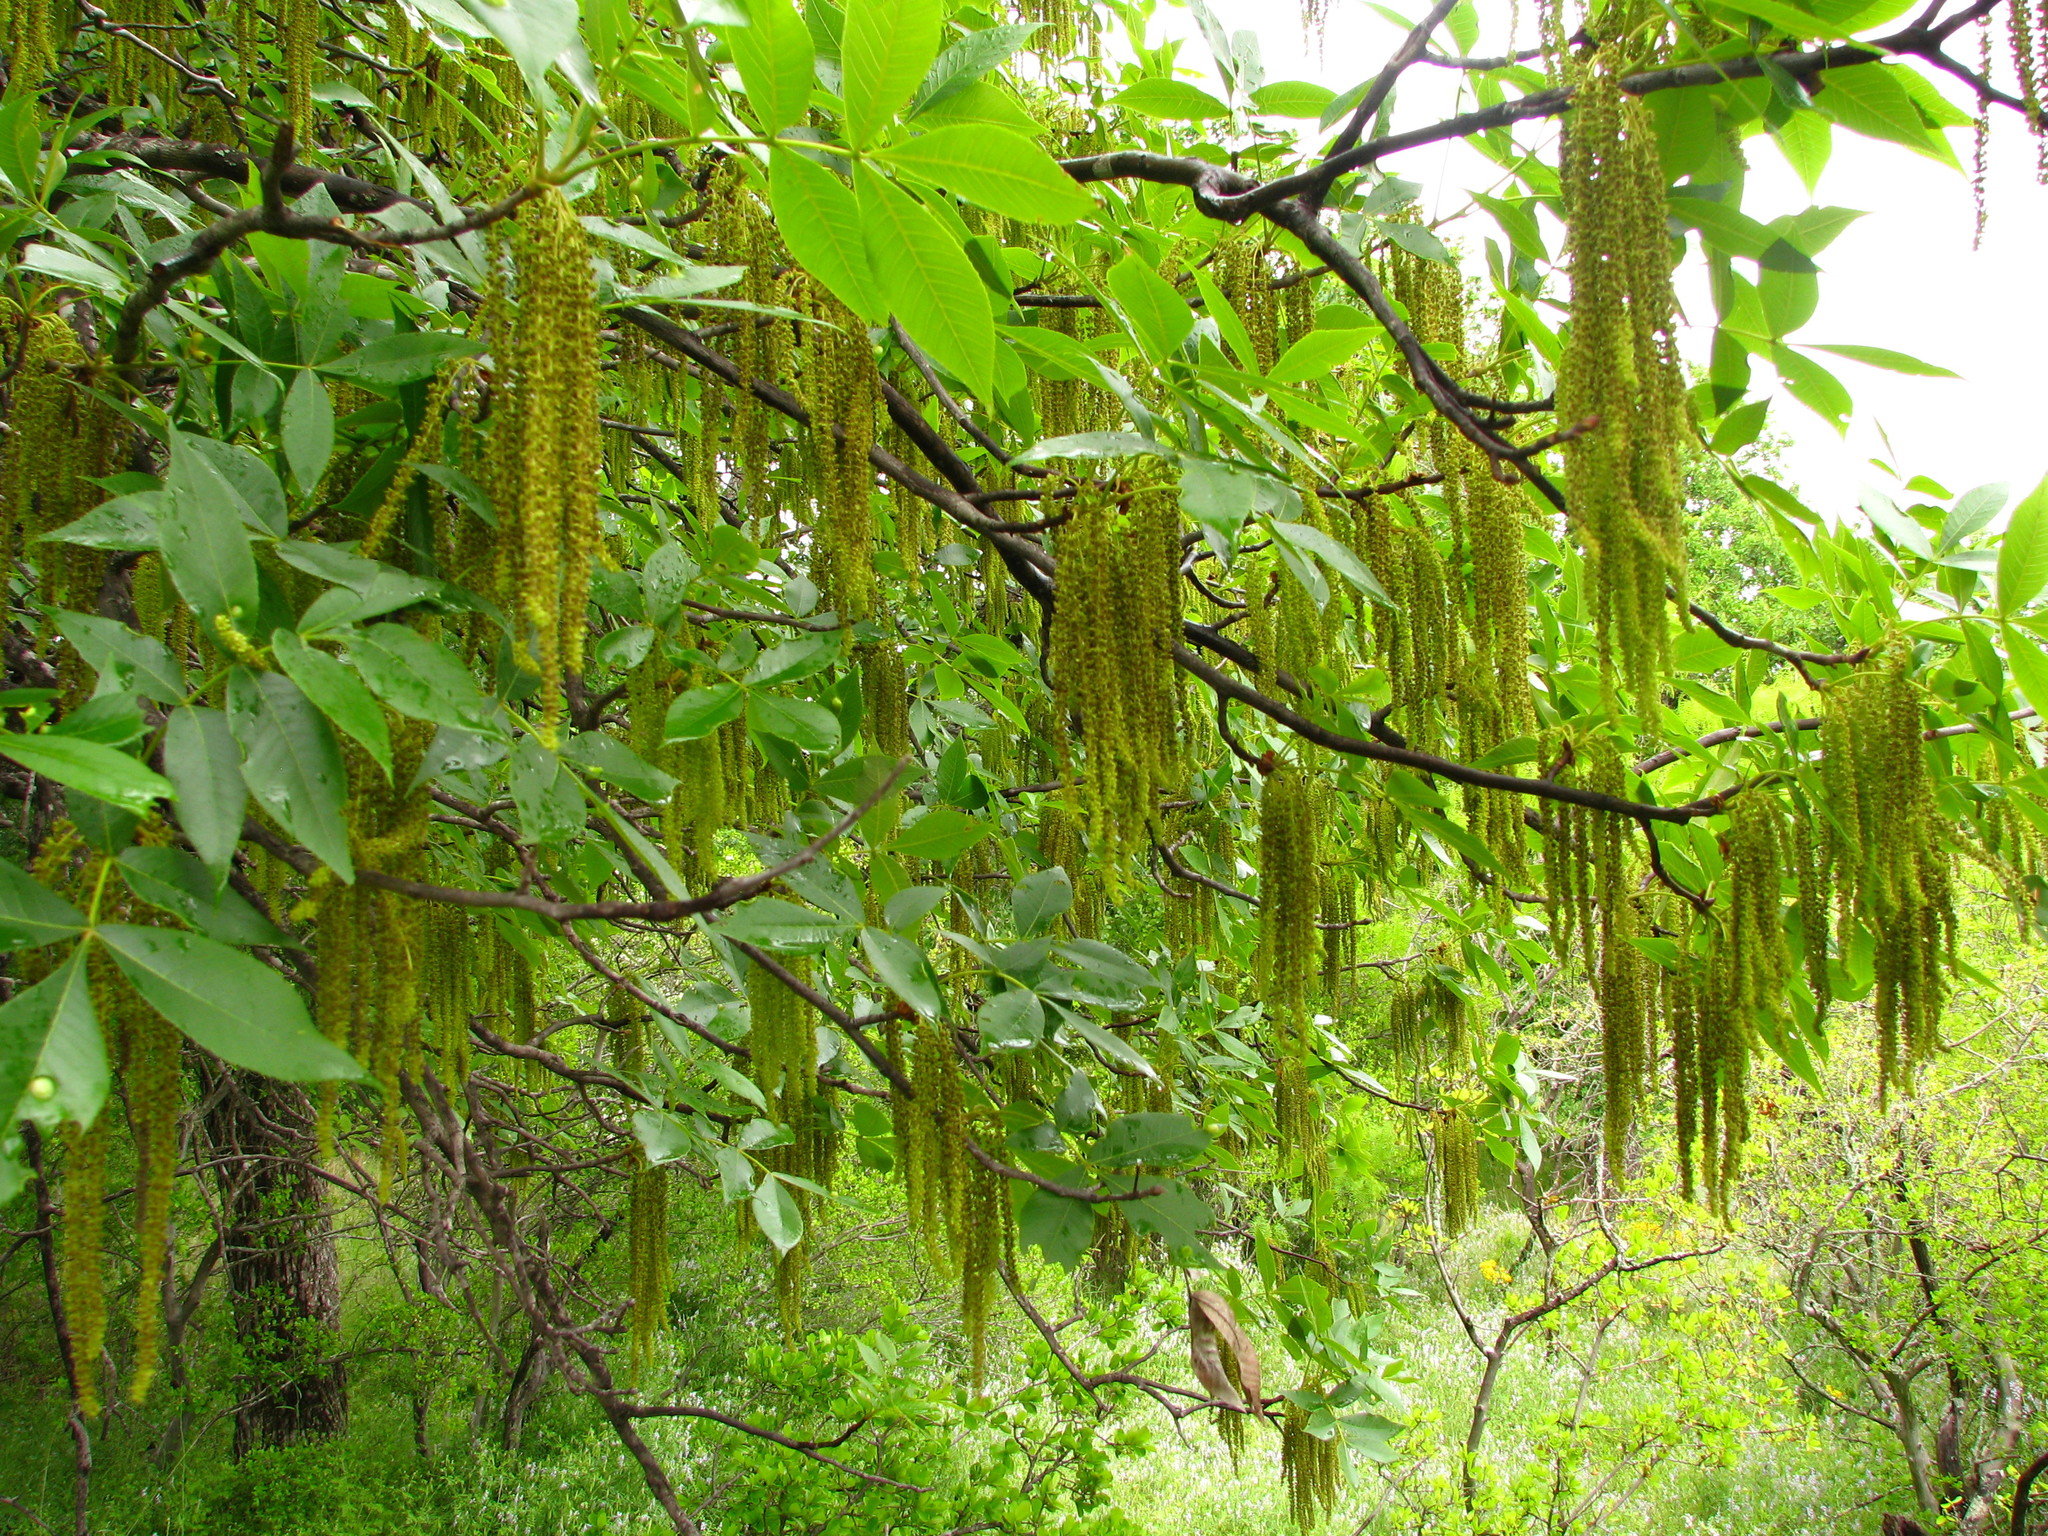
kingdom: Plantae
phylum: Tracheophyta
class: Magnoliopsida
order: Fagales
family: Juglandaceae
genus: Carya
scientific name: Carya texana
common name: Black hickory
